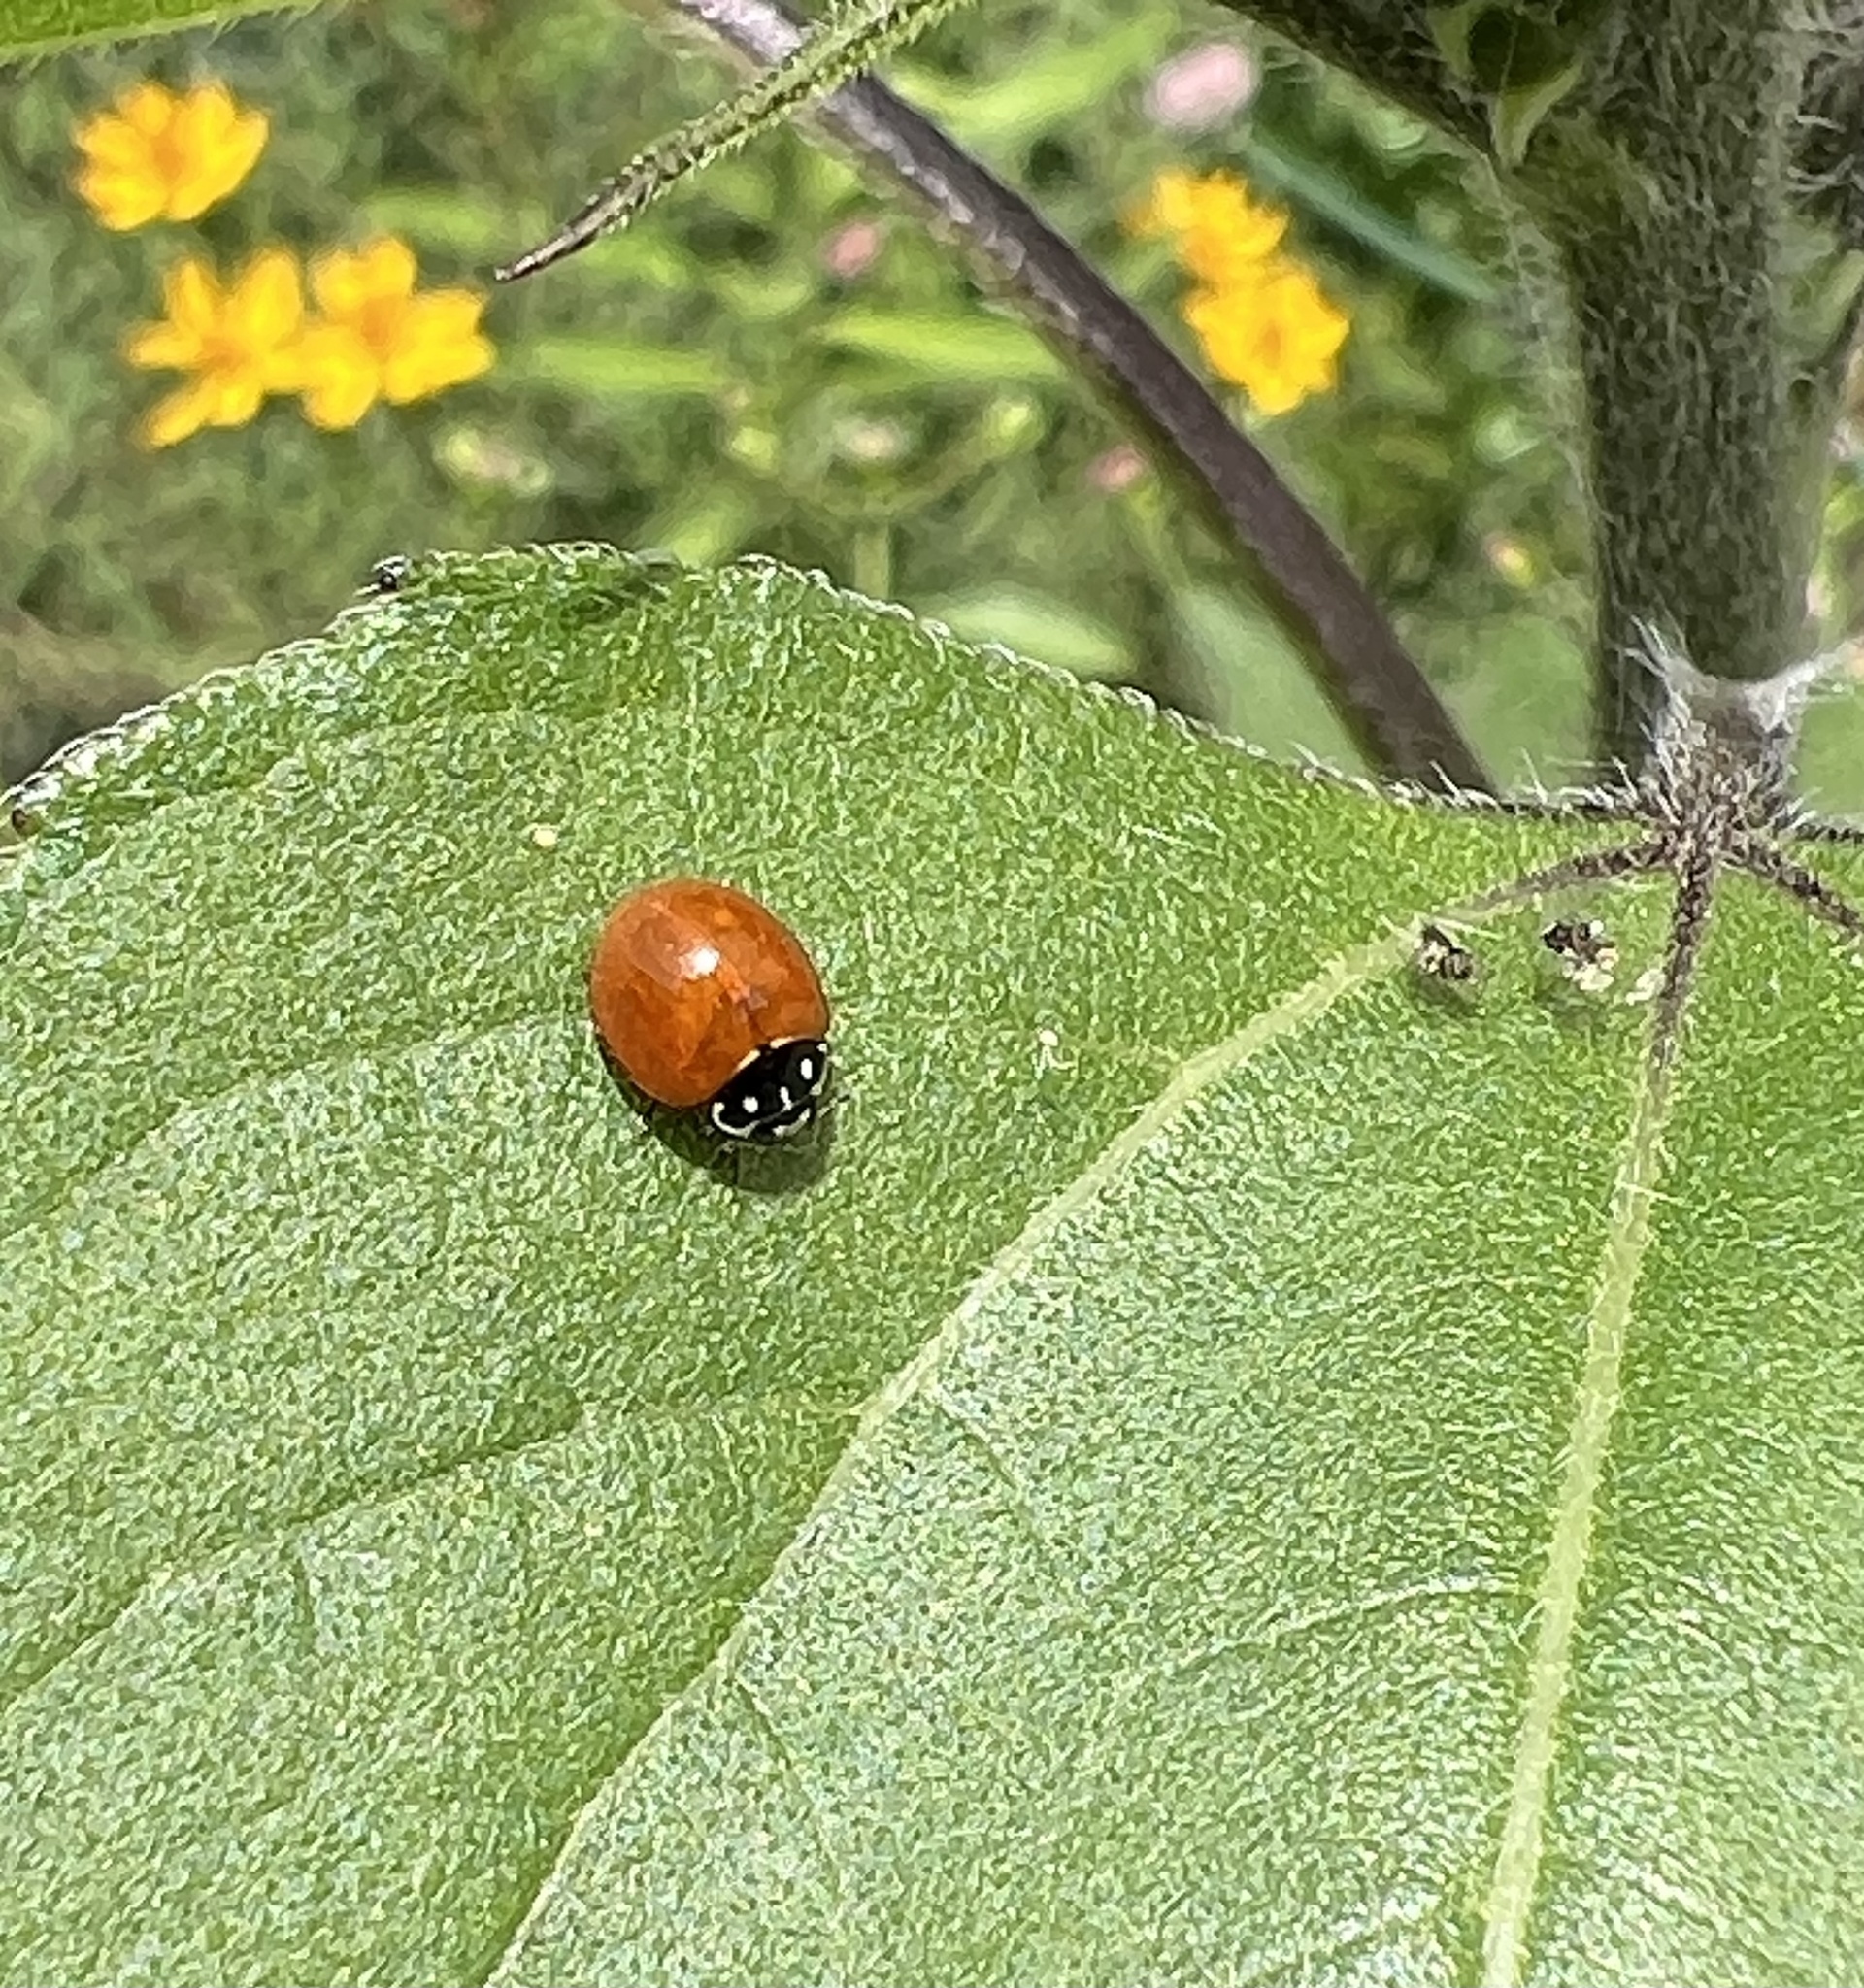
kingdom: Animalia
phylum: Arthropoda
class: Insecta
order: Coleoptera
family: Coccinellidae
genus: Cycloneda
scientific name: Cycloneda sanguinea
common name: Ladybird beetle
